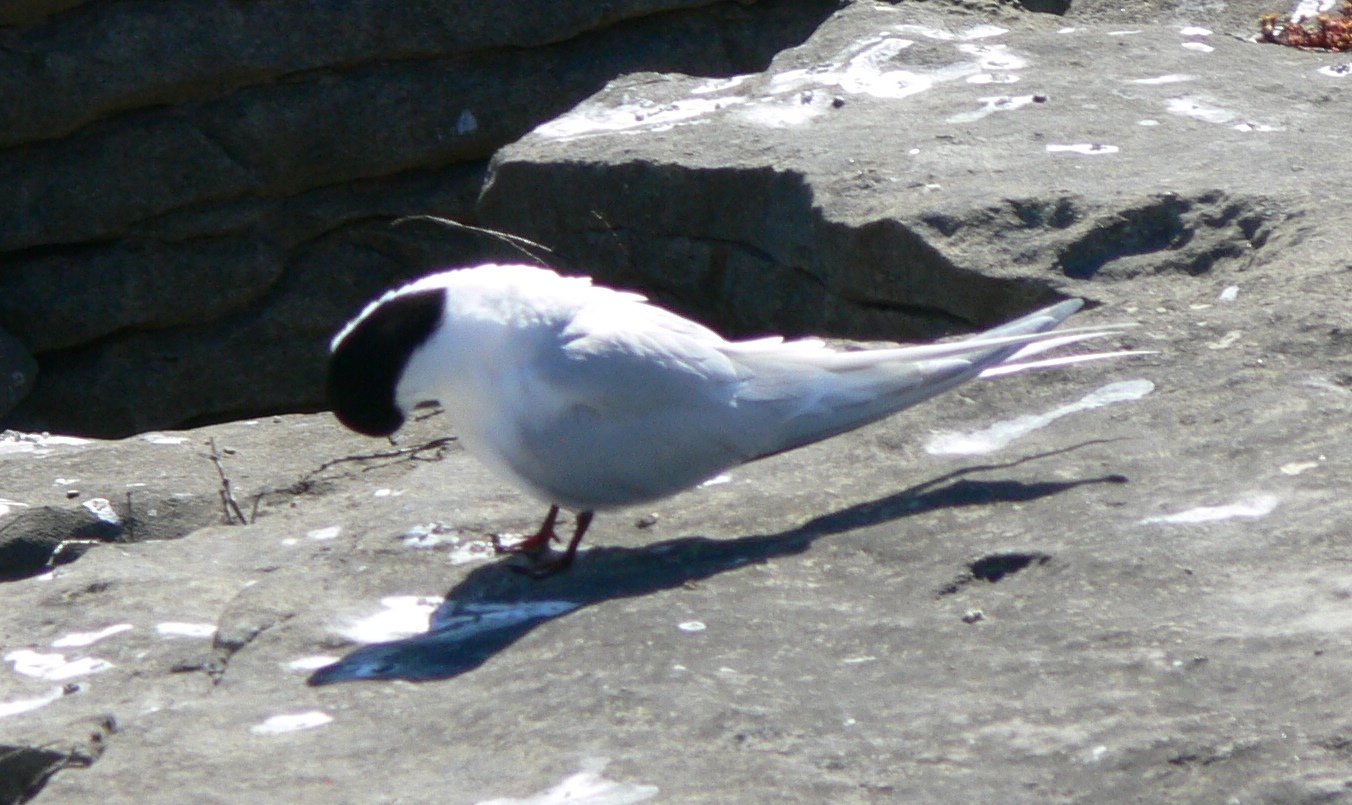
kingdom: Animalia
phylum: Chordata
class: Aves
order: Charadriiformes
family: Laridae
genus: Sterna
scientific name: Sterna striata
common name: White-fronted tern
